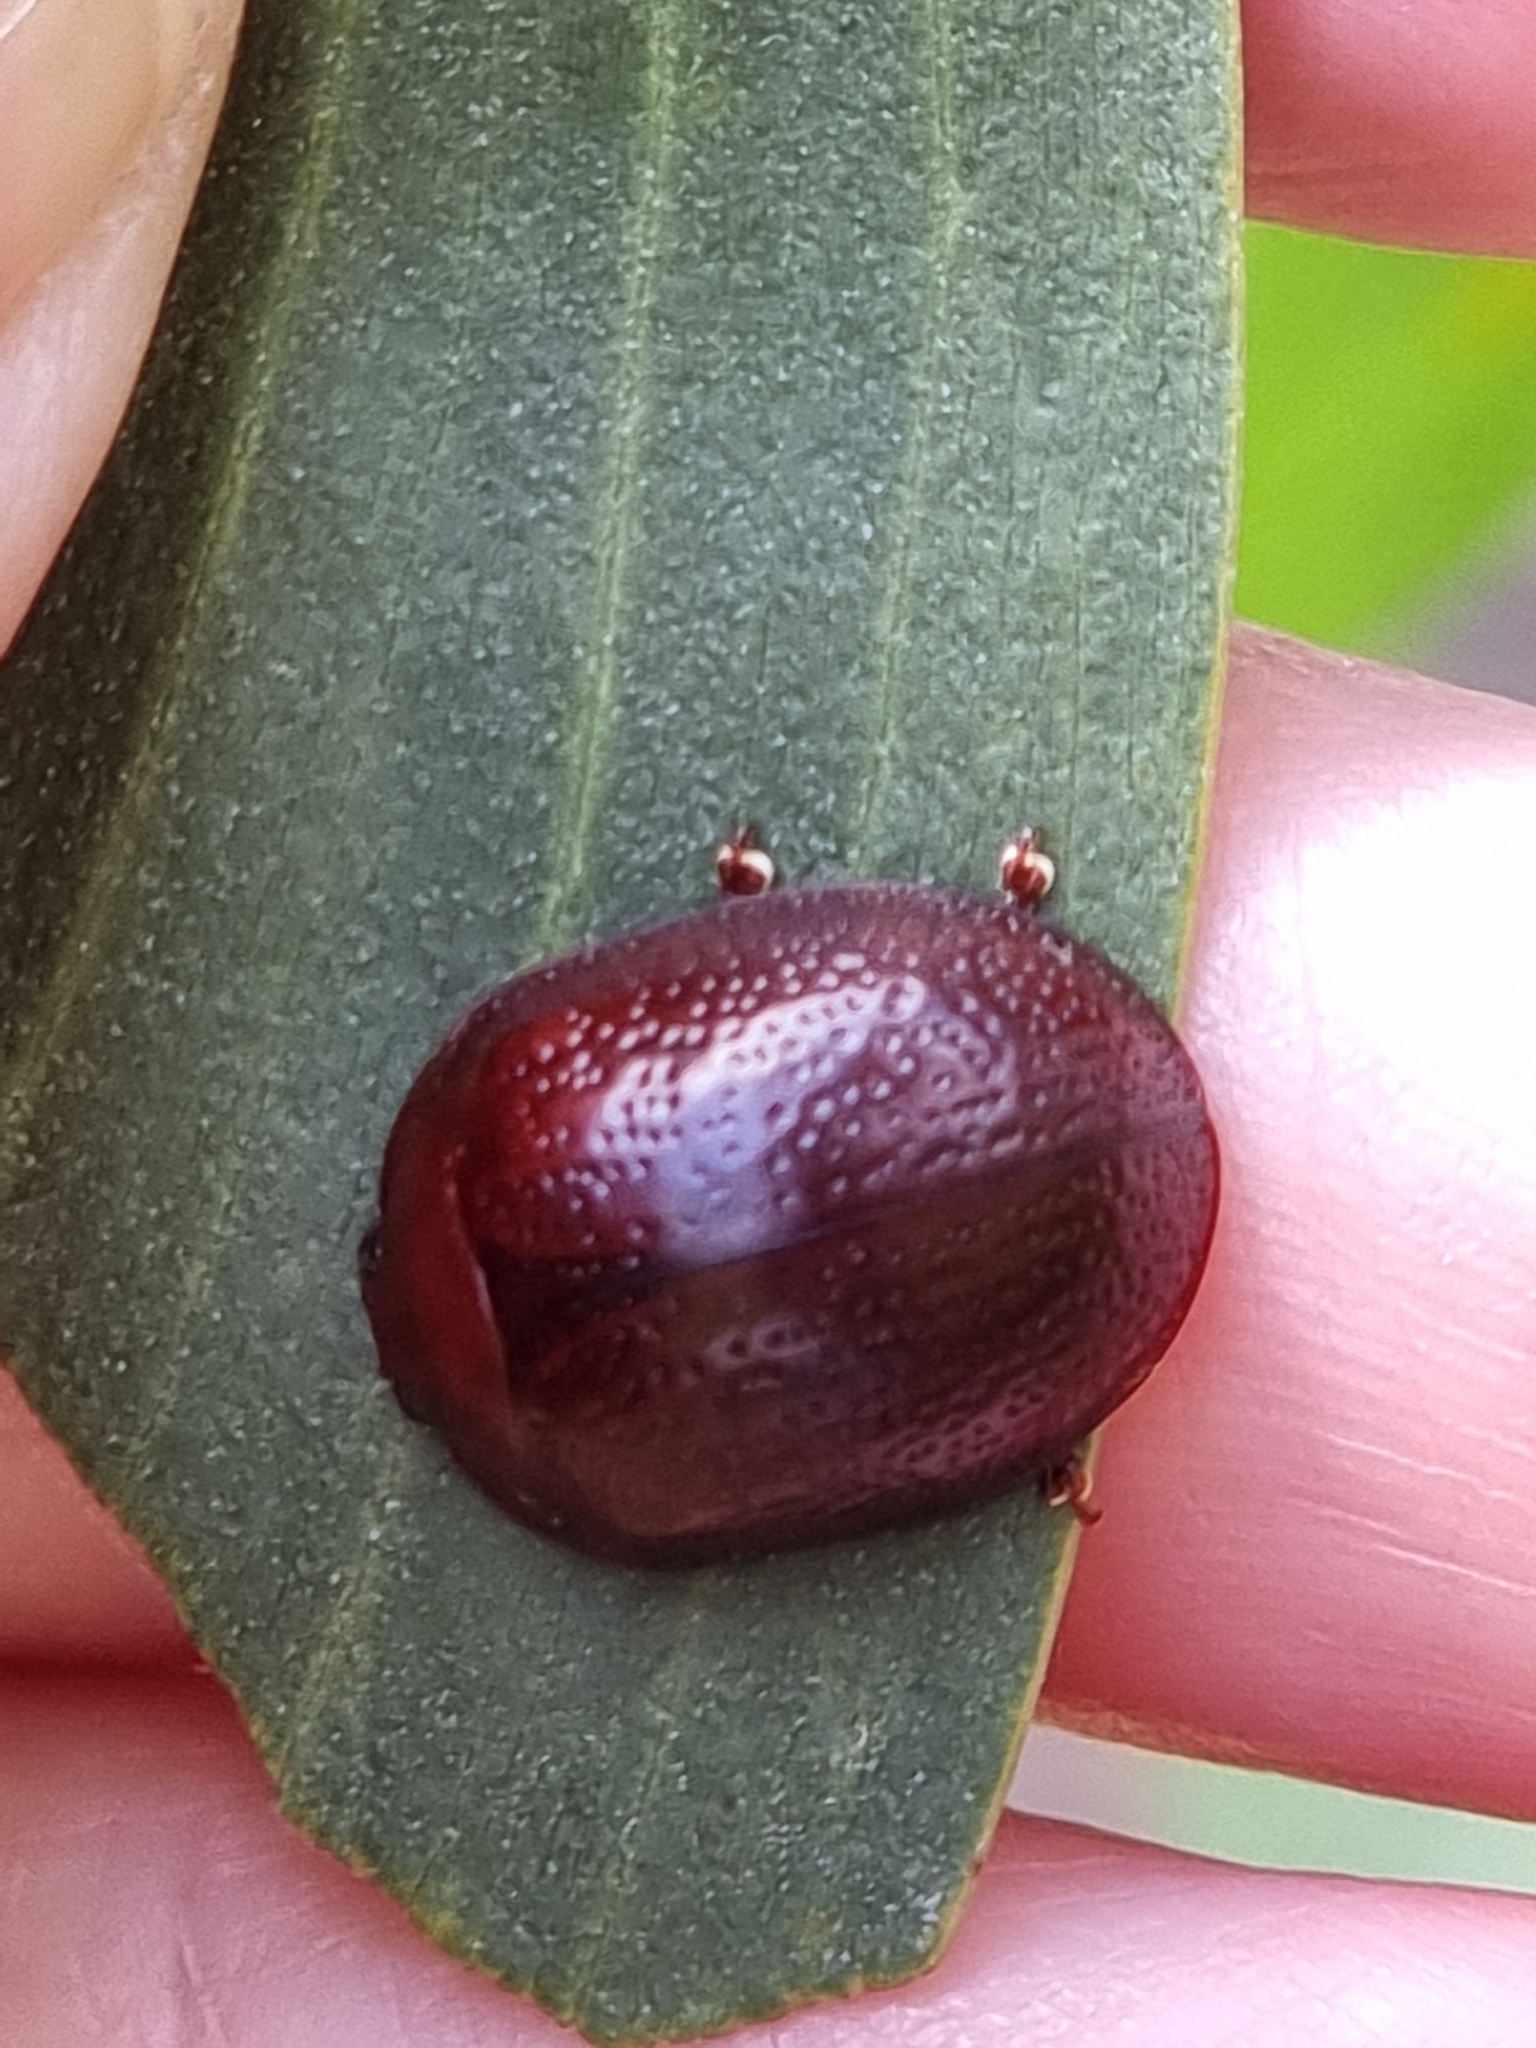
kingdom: Animalia
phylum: Arthropoda
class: Insecta
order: Coleoptera
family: Chrysomelidae
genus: Dicranosterna
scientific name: Dicranosterna
